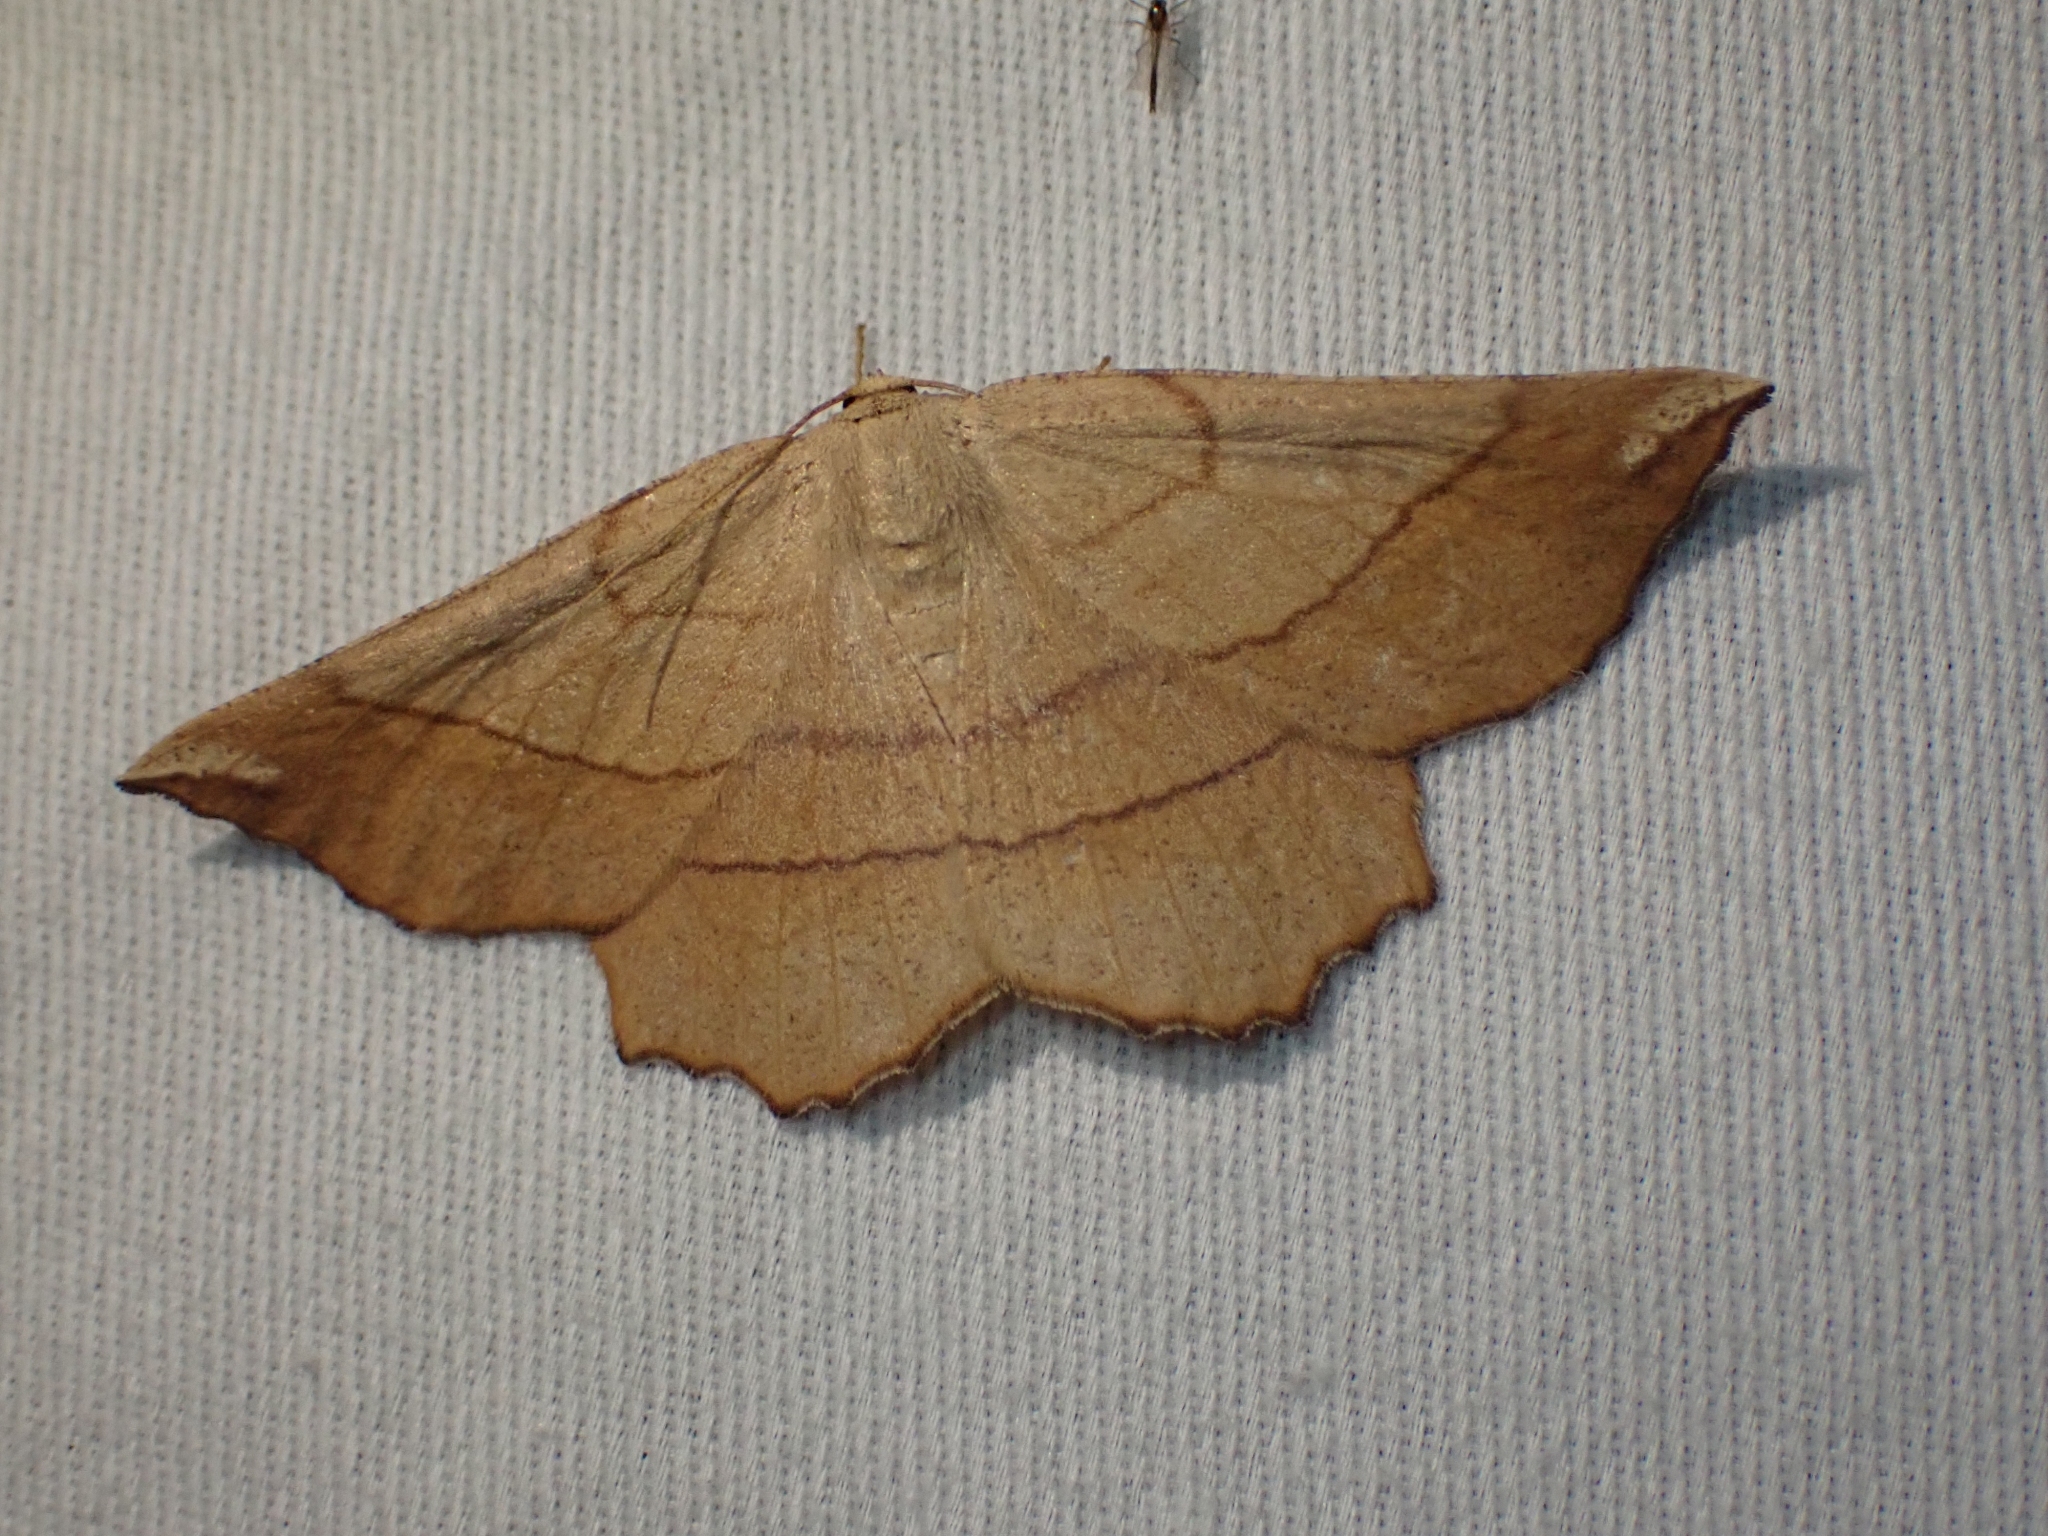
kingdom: Animalia
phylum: Arthropoda
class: Insecta
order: Lepidoptera
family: Geometridae
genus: Euchlaena
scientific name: Euchlaena madusaria
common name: Scrub euchlaena moth
